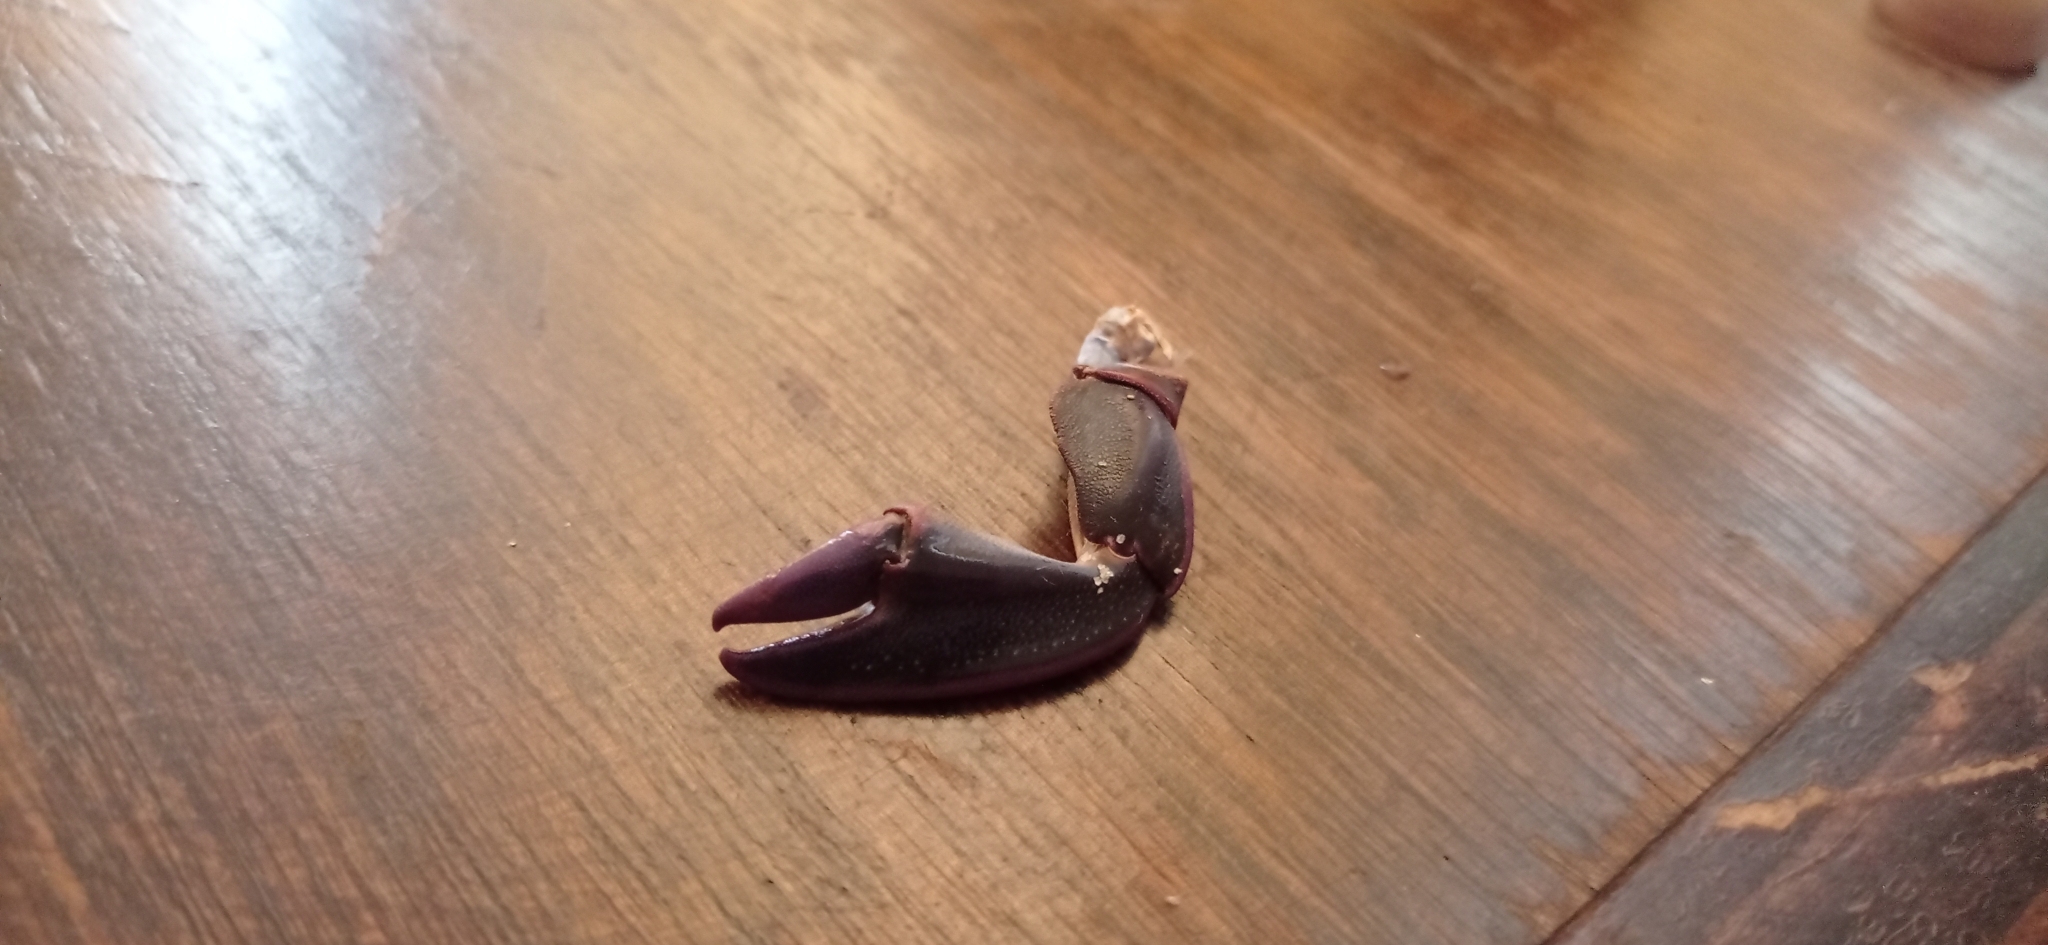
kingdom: Animalia
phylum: Arthropoda
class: Malacostraca
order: Decapoda
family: Porcellanidae
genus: Petrolisthes
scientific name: Petrolisthes violaceus
